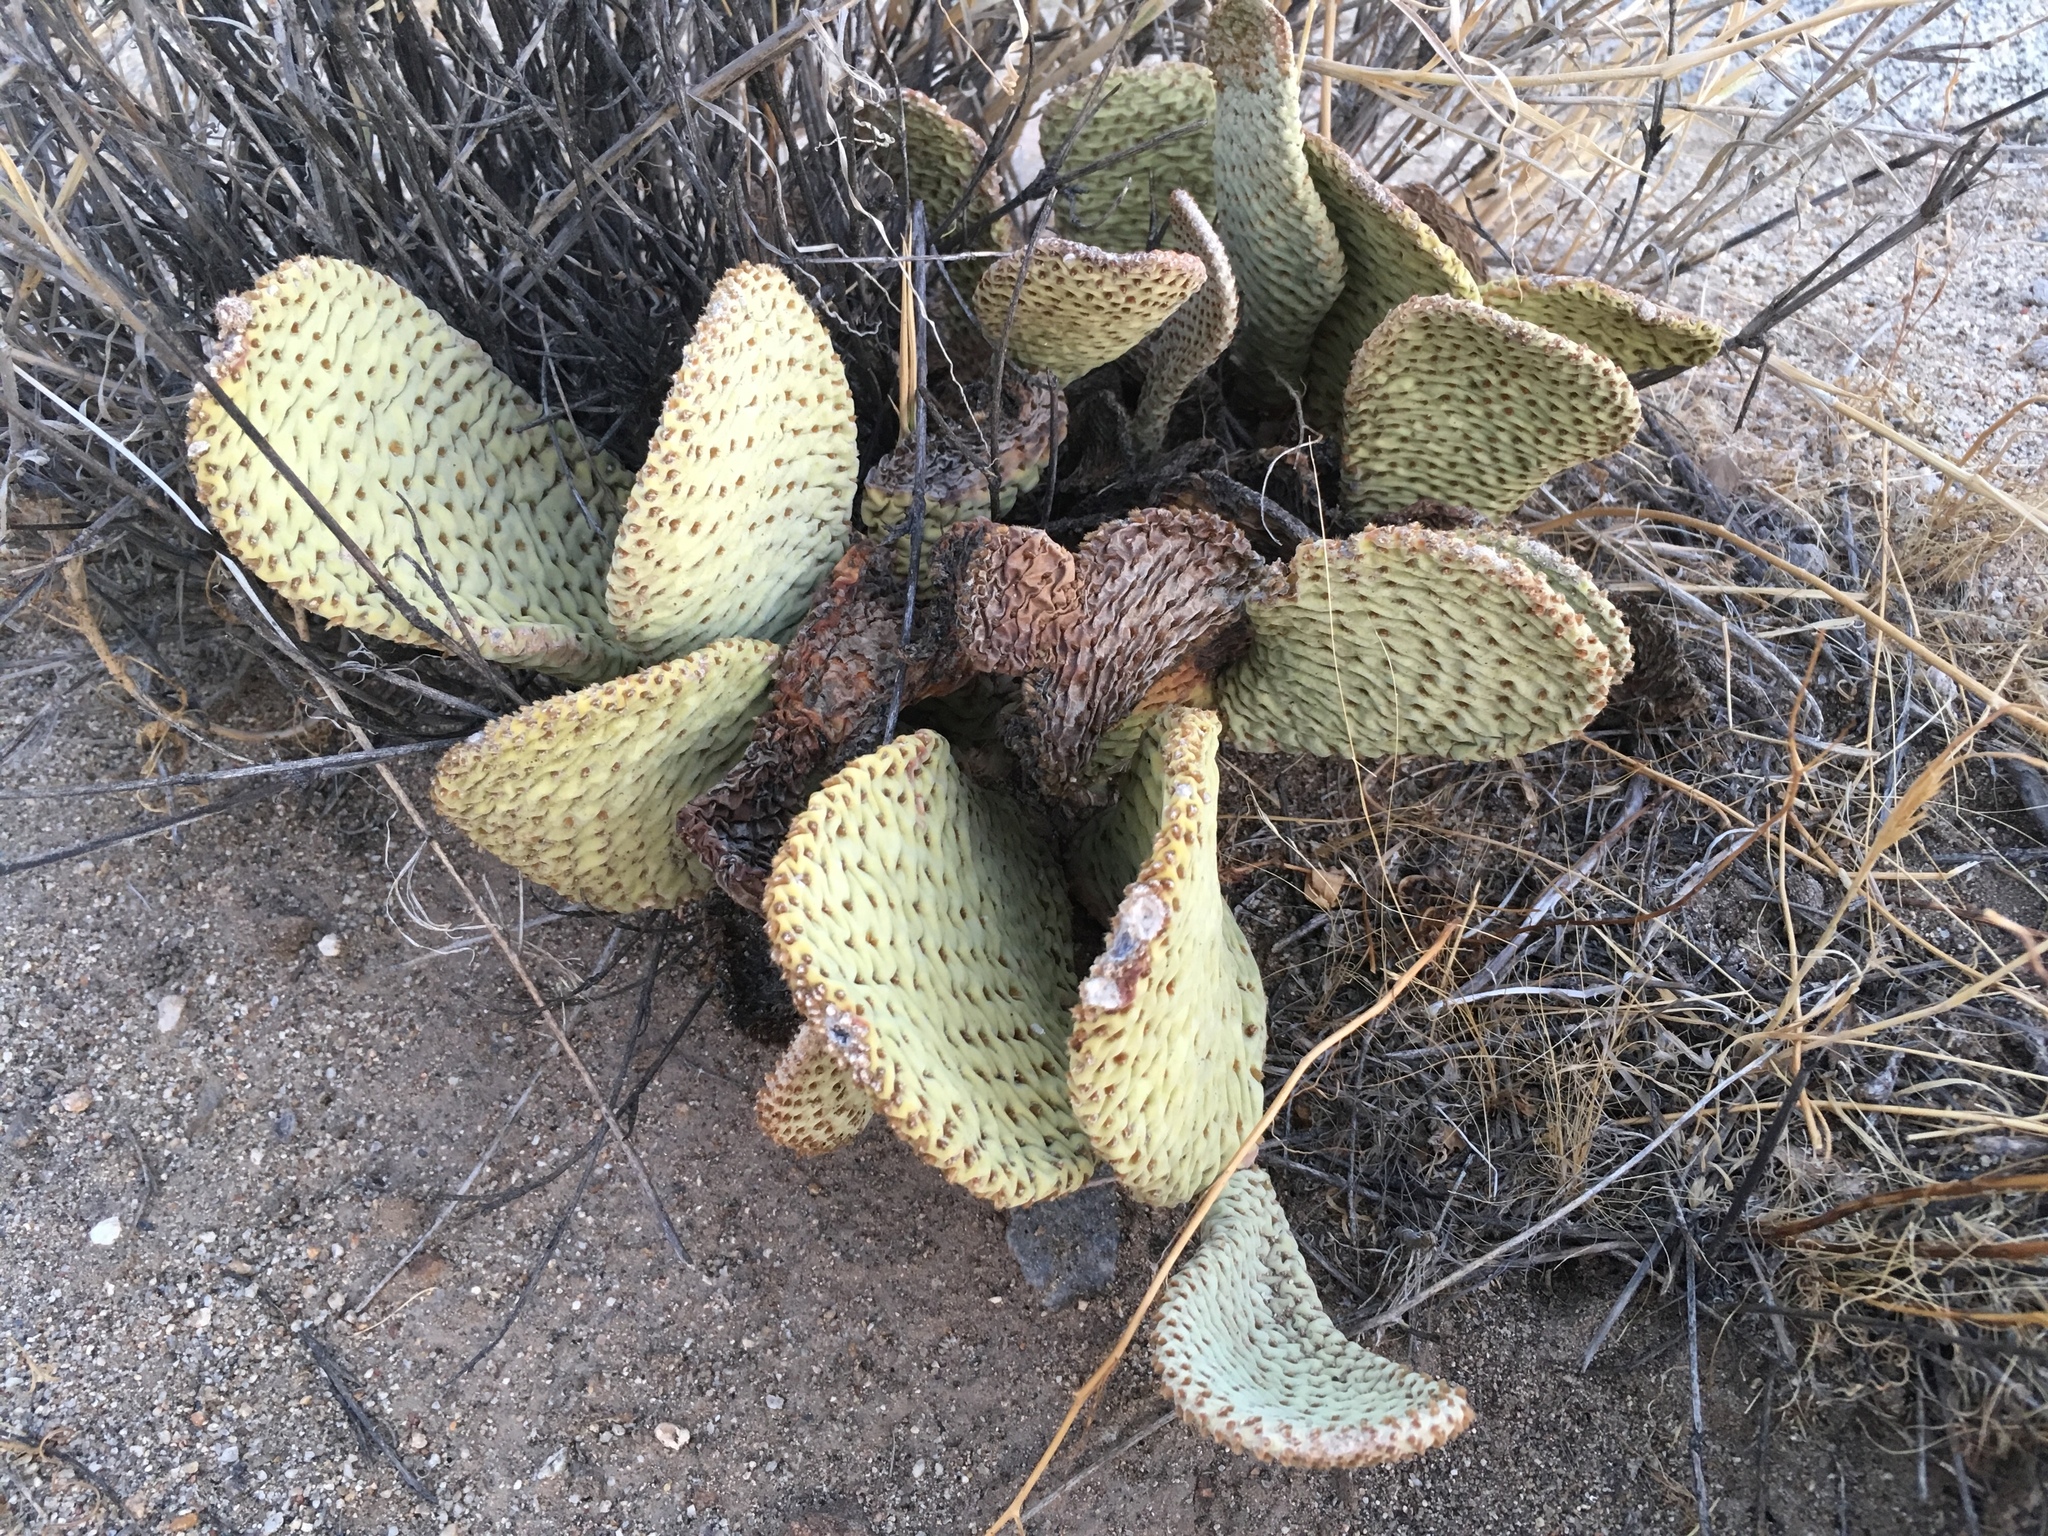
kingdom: Plantae
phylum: Tracheophyta
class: Magnoliopsida
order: Caryophyllales
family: Cactaceae
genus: Opuntia
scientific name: Opuntia basilaris
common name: Beavertail prickly-pear
